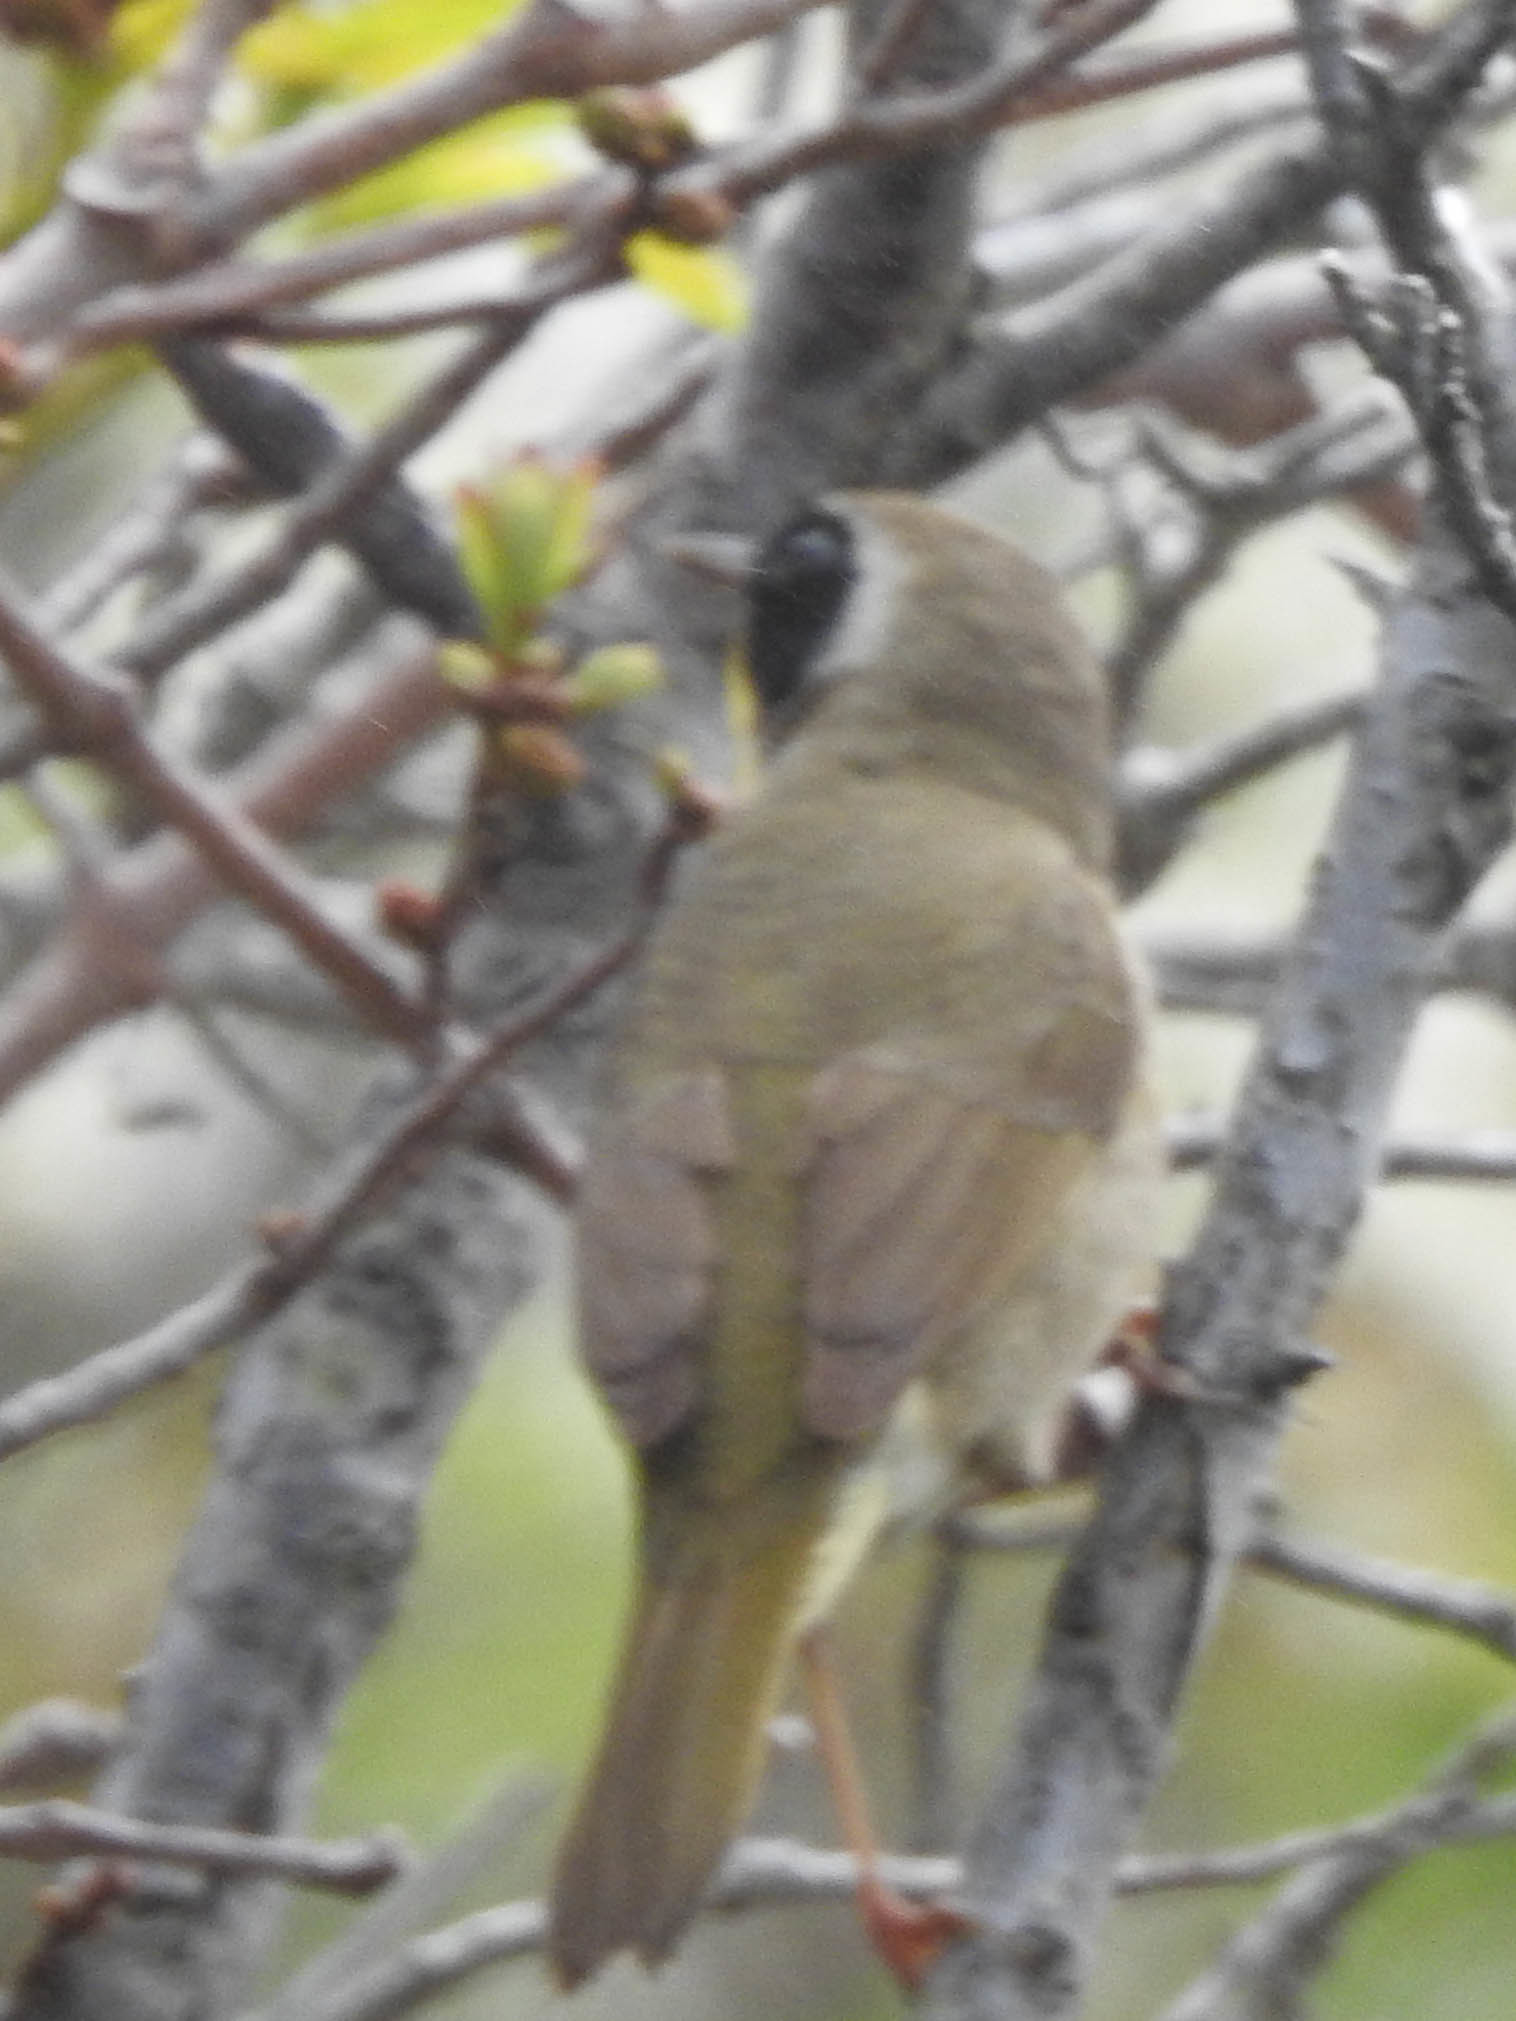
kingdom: Animalia
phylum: Chordata
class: Aves
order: Passeriformes
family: Parulidae
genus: Geothlypis
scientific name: Geothlypis trichas
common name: Common yellowthroat
